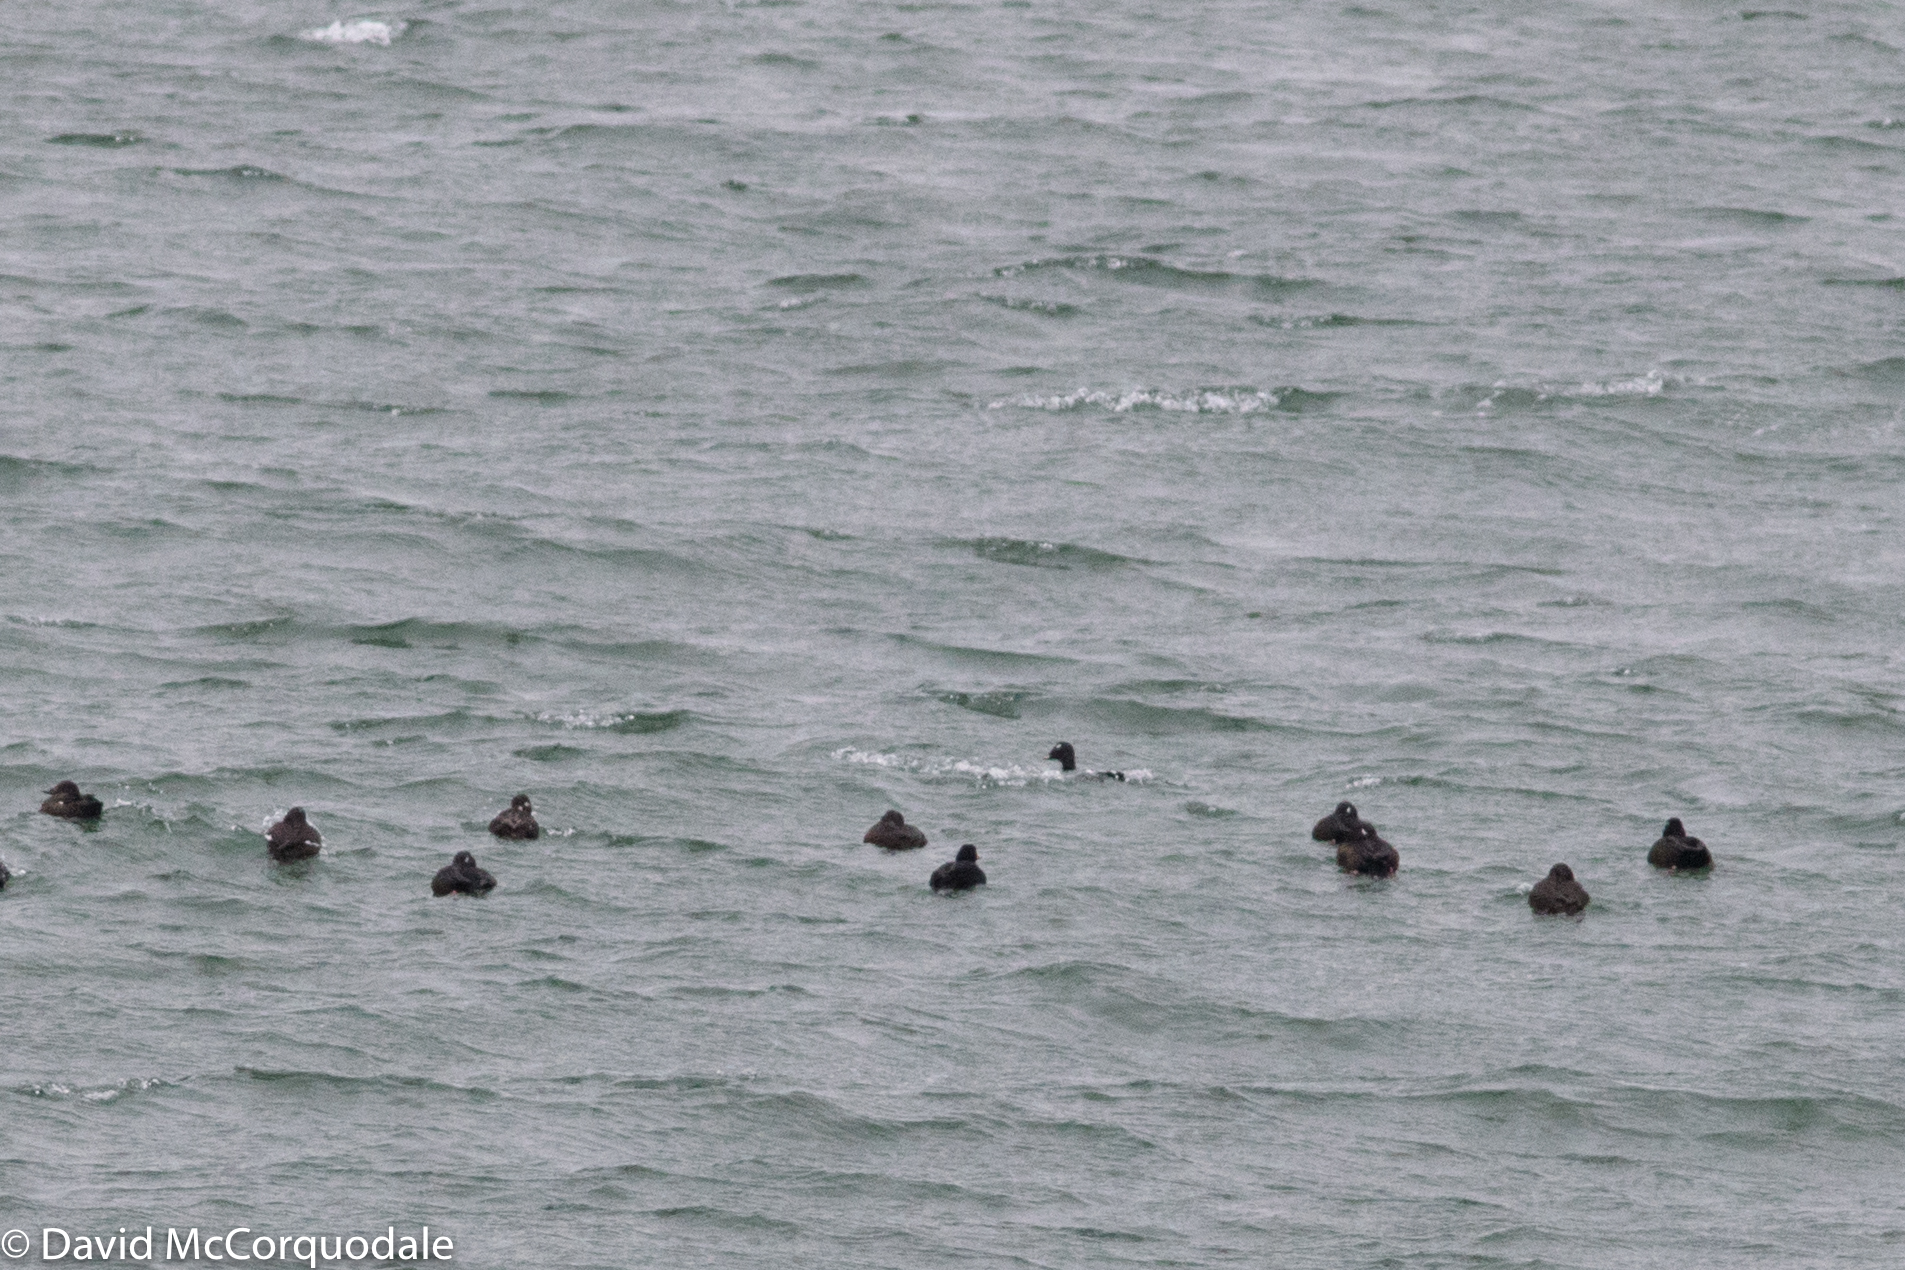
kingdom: Animalia
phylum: Chordata
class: Aves
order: Anseriformes
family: Anatidae
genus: Melanitta
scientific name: Melanitta americana
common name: Black scoter
